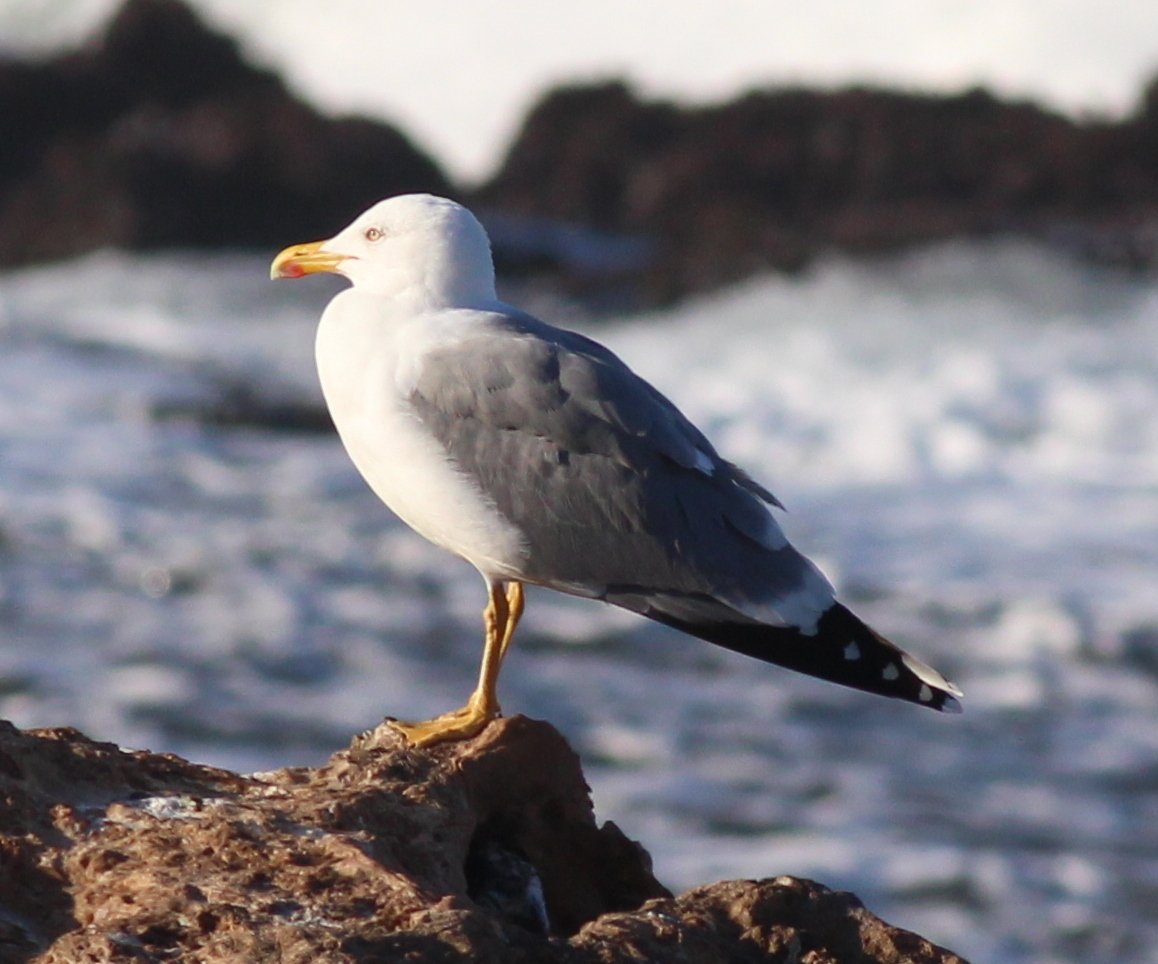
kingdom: Animalia
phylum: Chordata
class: Aves
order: Charadriiformes
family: Laridae
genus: Larus
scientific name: Larus michahellis
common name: Yellow-legged gull
